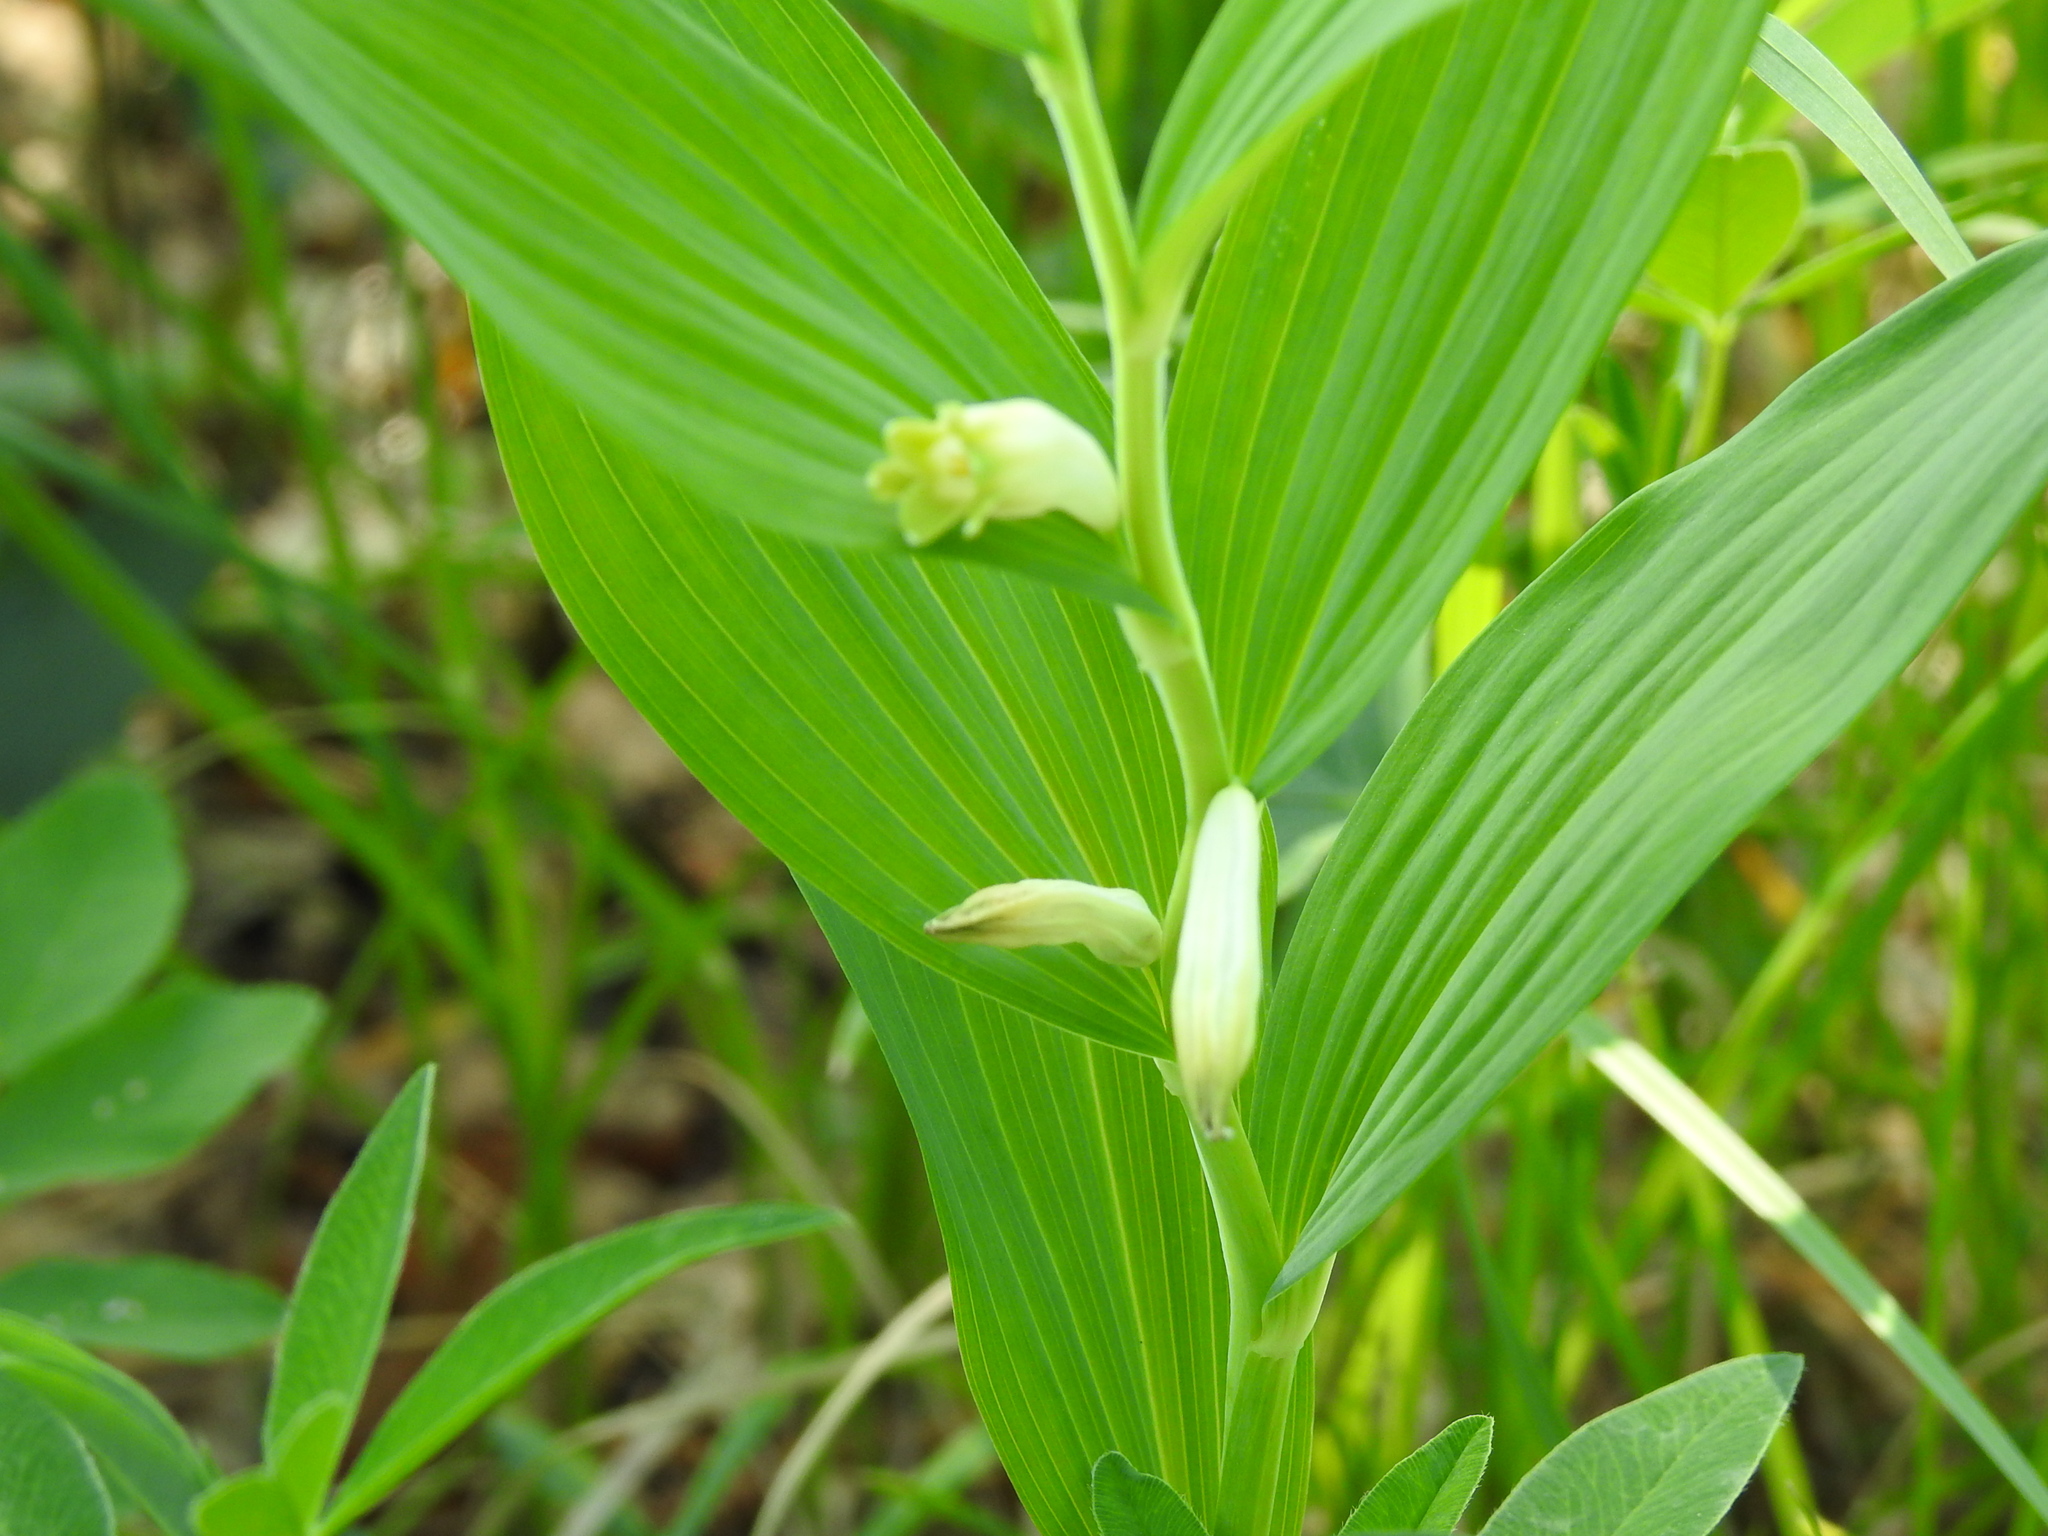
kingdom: Plantae
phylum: Tracheophyta
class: Liliopsida
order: Asparagales
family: Asparagaceae
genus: Polygonatum
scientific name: Polygonatum odoratum
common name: Angular solomon's-seal
